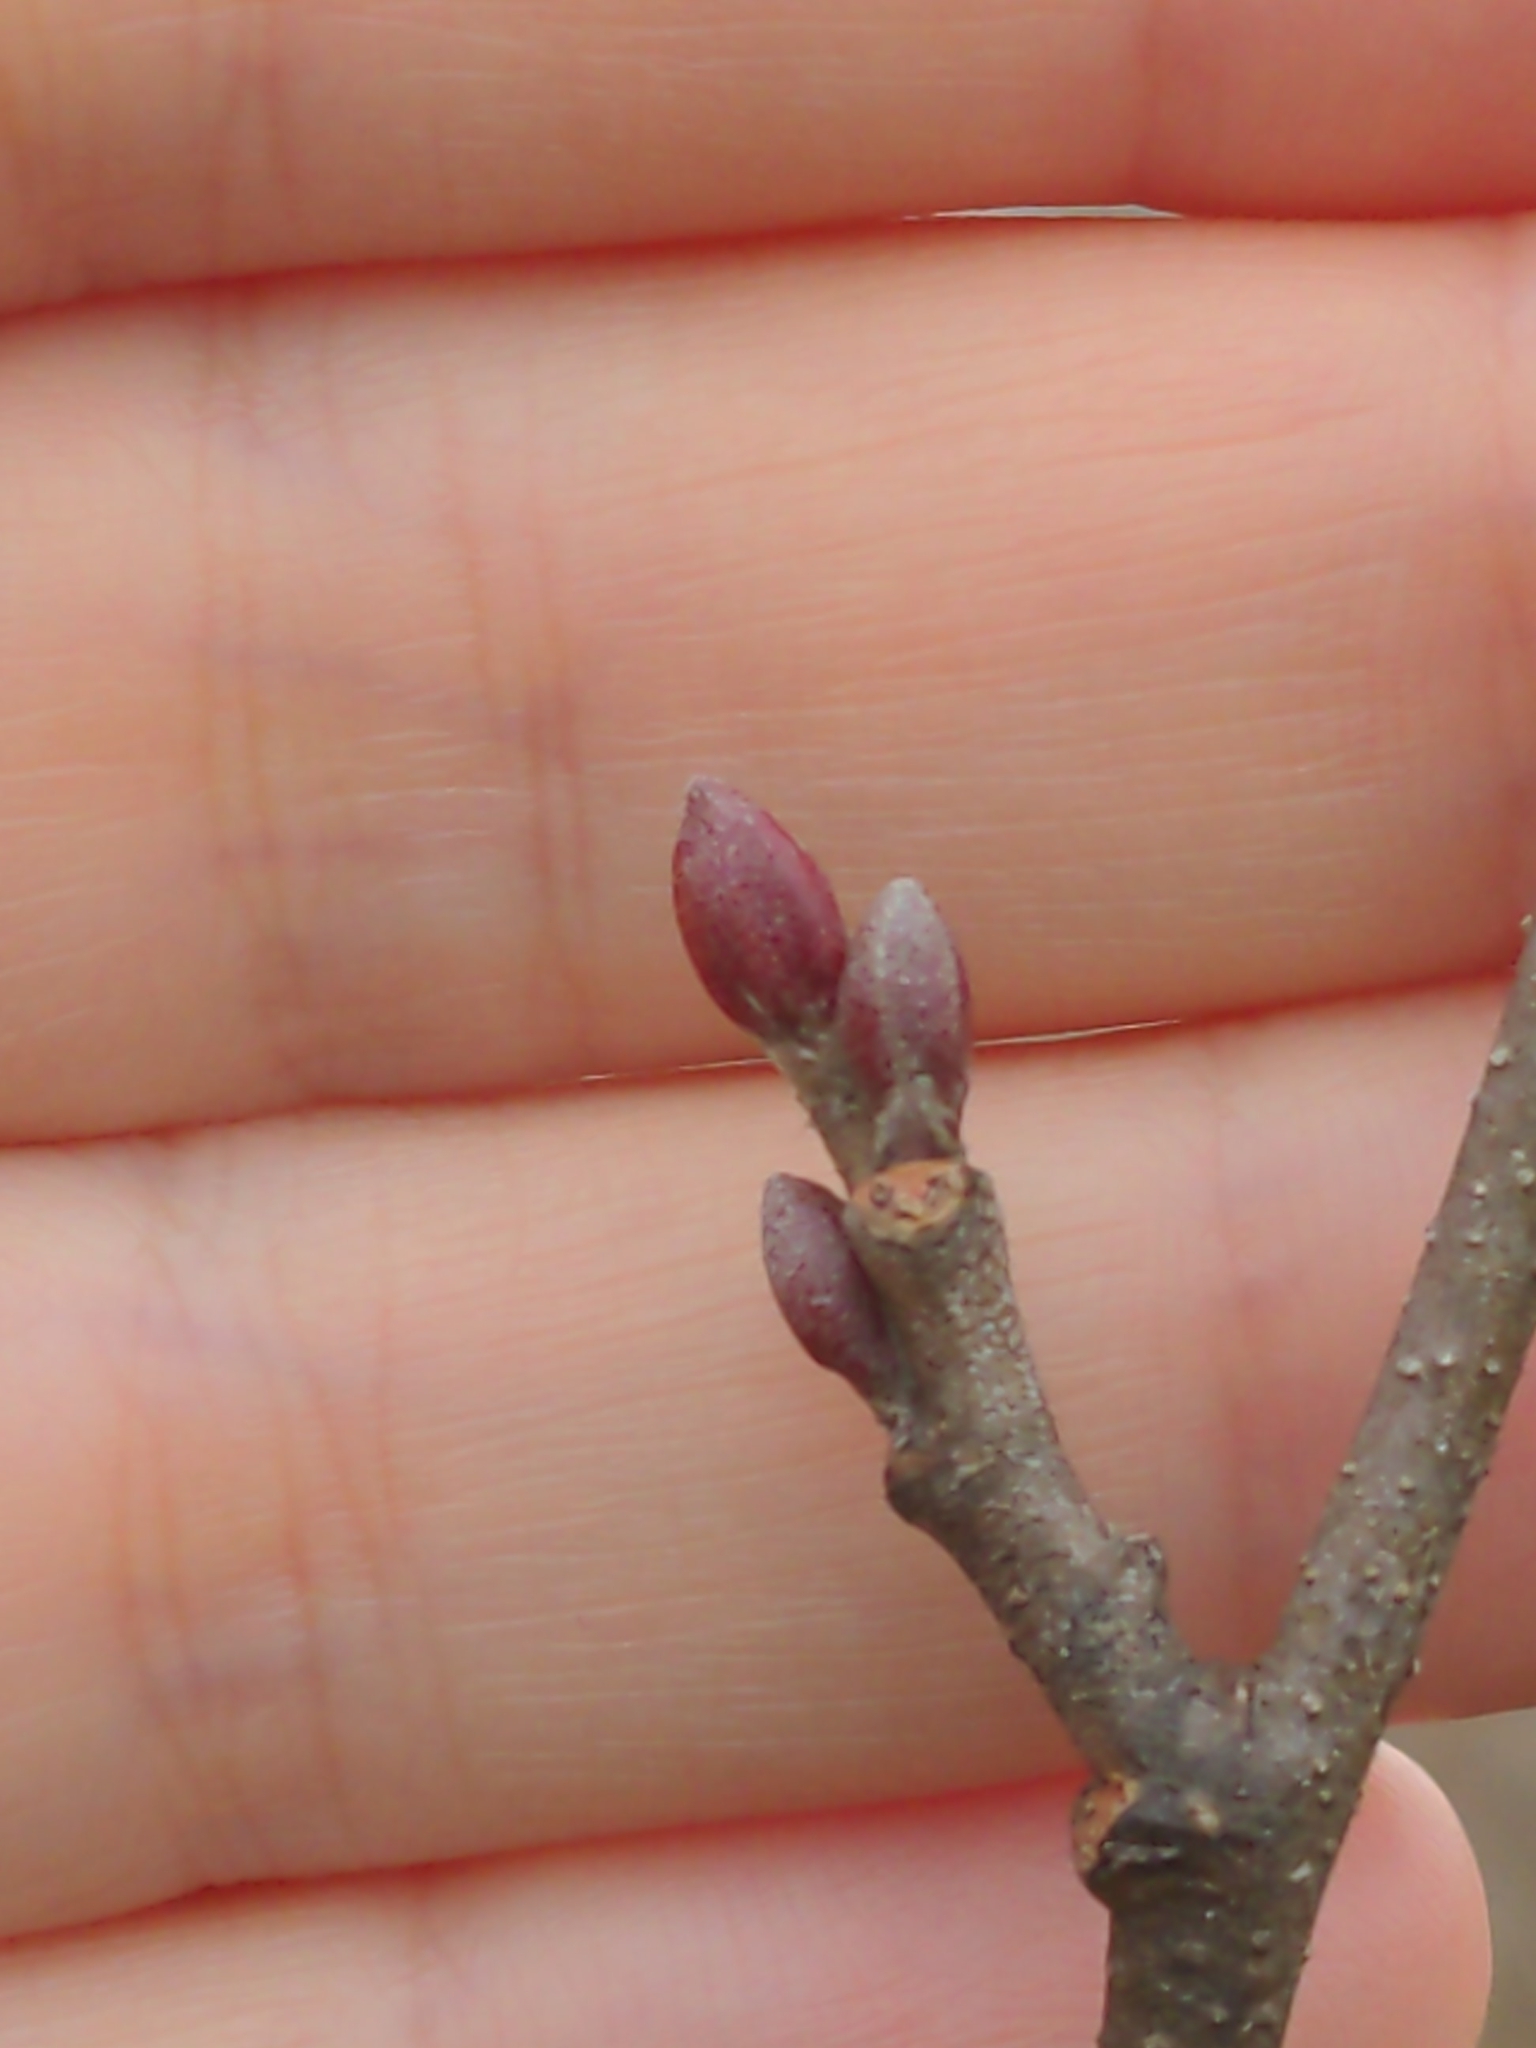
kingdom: Plantae
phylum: Tracheophyta
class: Magnoliopsida
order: Fagales
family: Betulaceae
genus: Alnus
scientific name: Alnus serrulata
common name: Hazel alder
